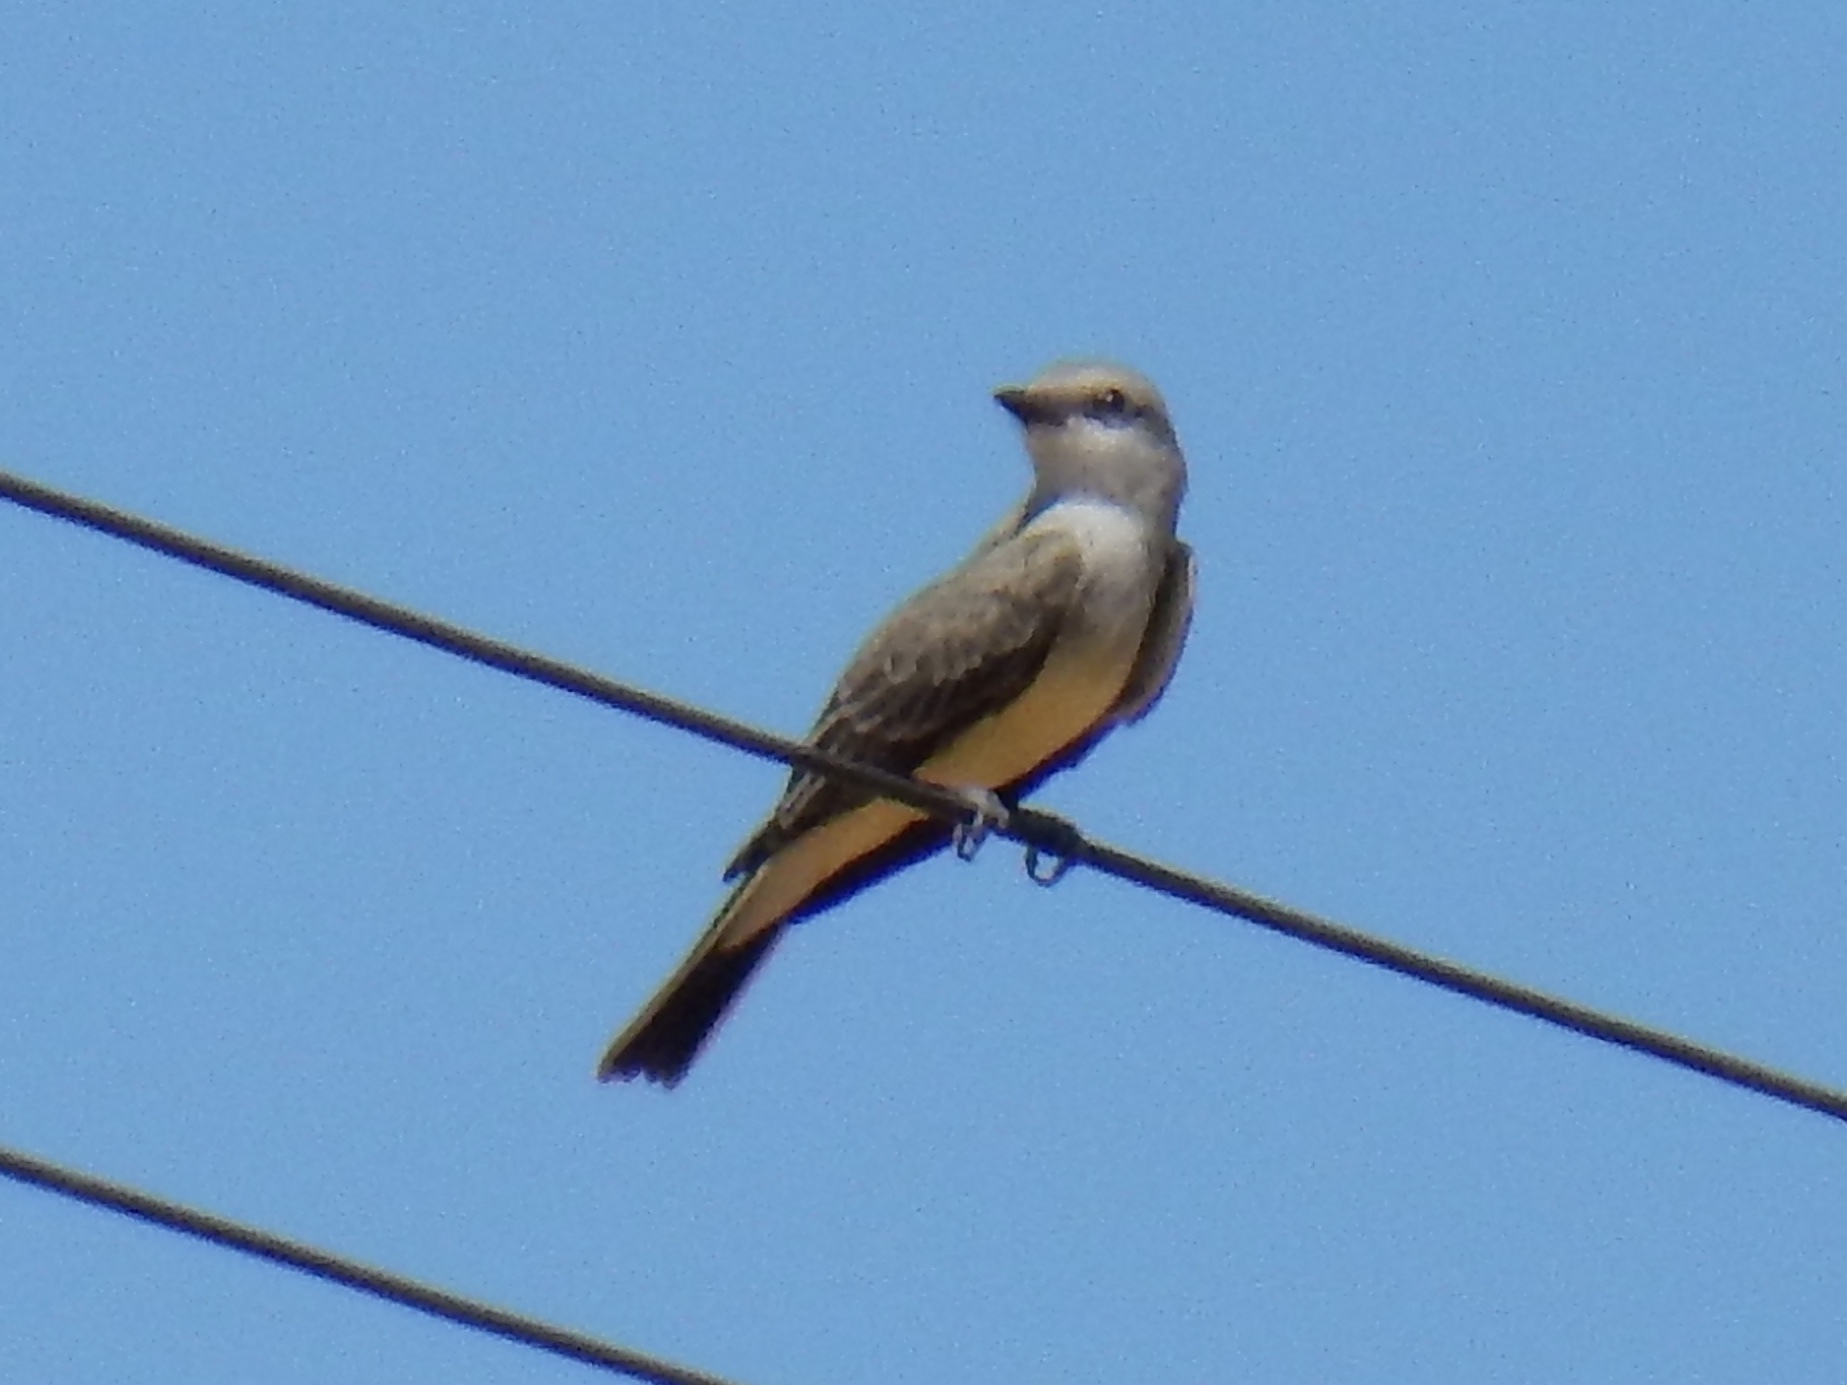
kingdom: Animalia
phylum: Chordata
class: Aves
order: Passeriformes
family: Tyrannidae
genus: Tyrannus
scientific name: Tyrannus verticalis
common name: Western kingbird
